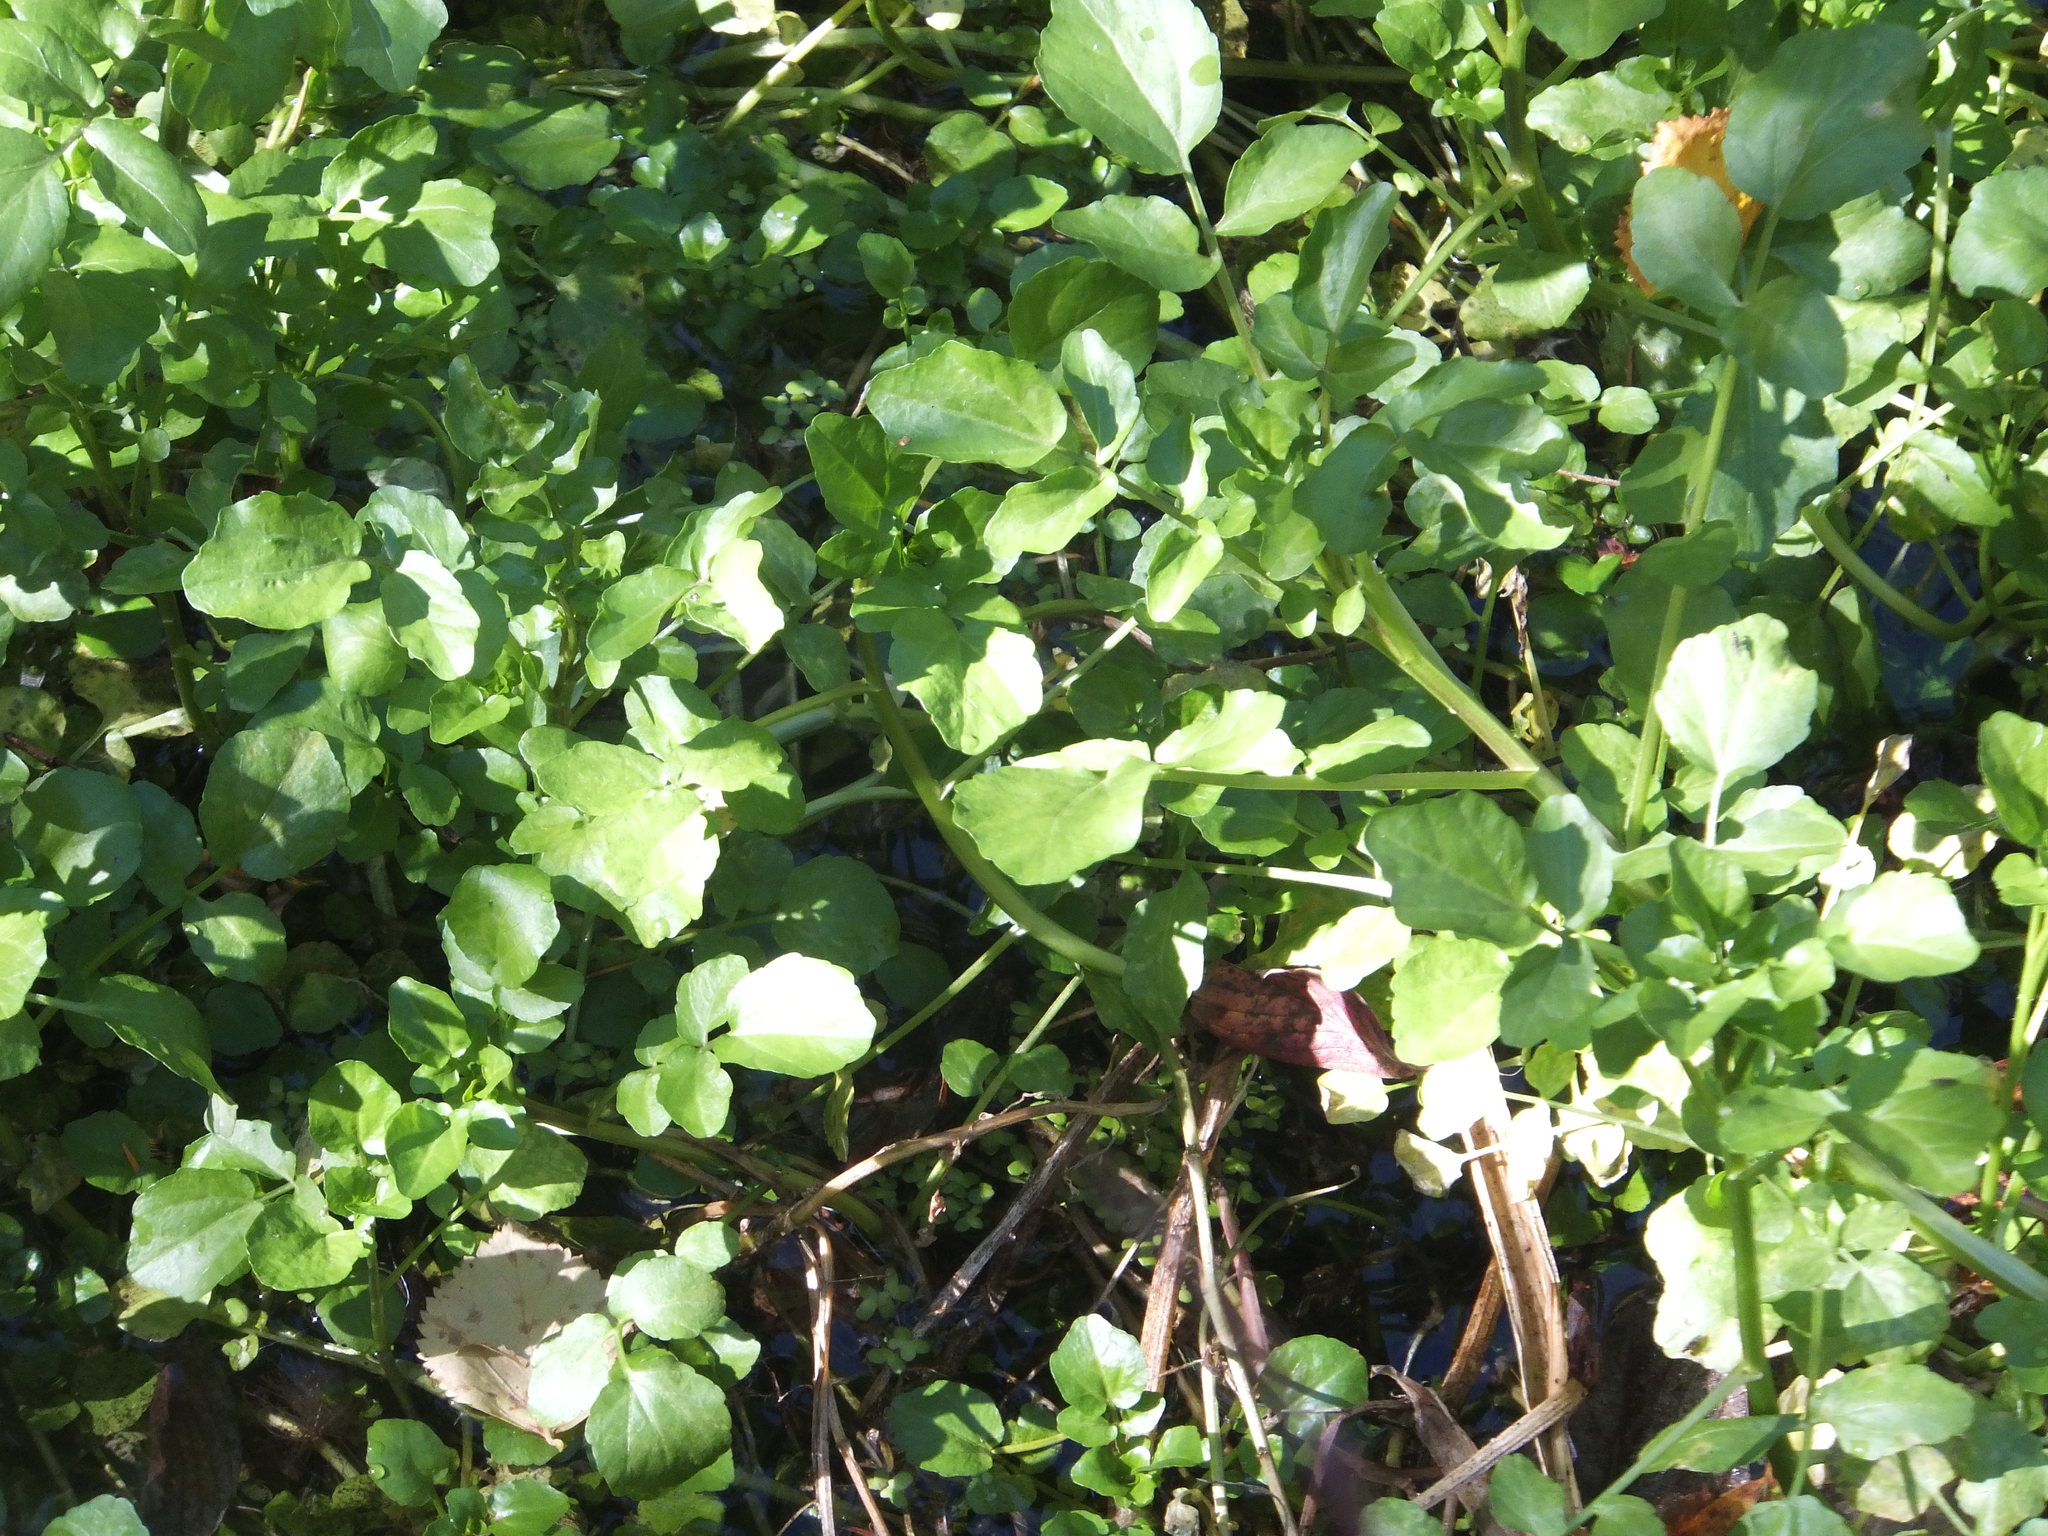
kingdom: Plantae
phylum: Tracheophyta
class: Magnoliopsida
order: Brassicales
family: Brassicaceae
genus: Nasturtium
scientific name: Nasturtium officinale
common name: Watercress
